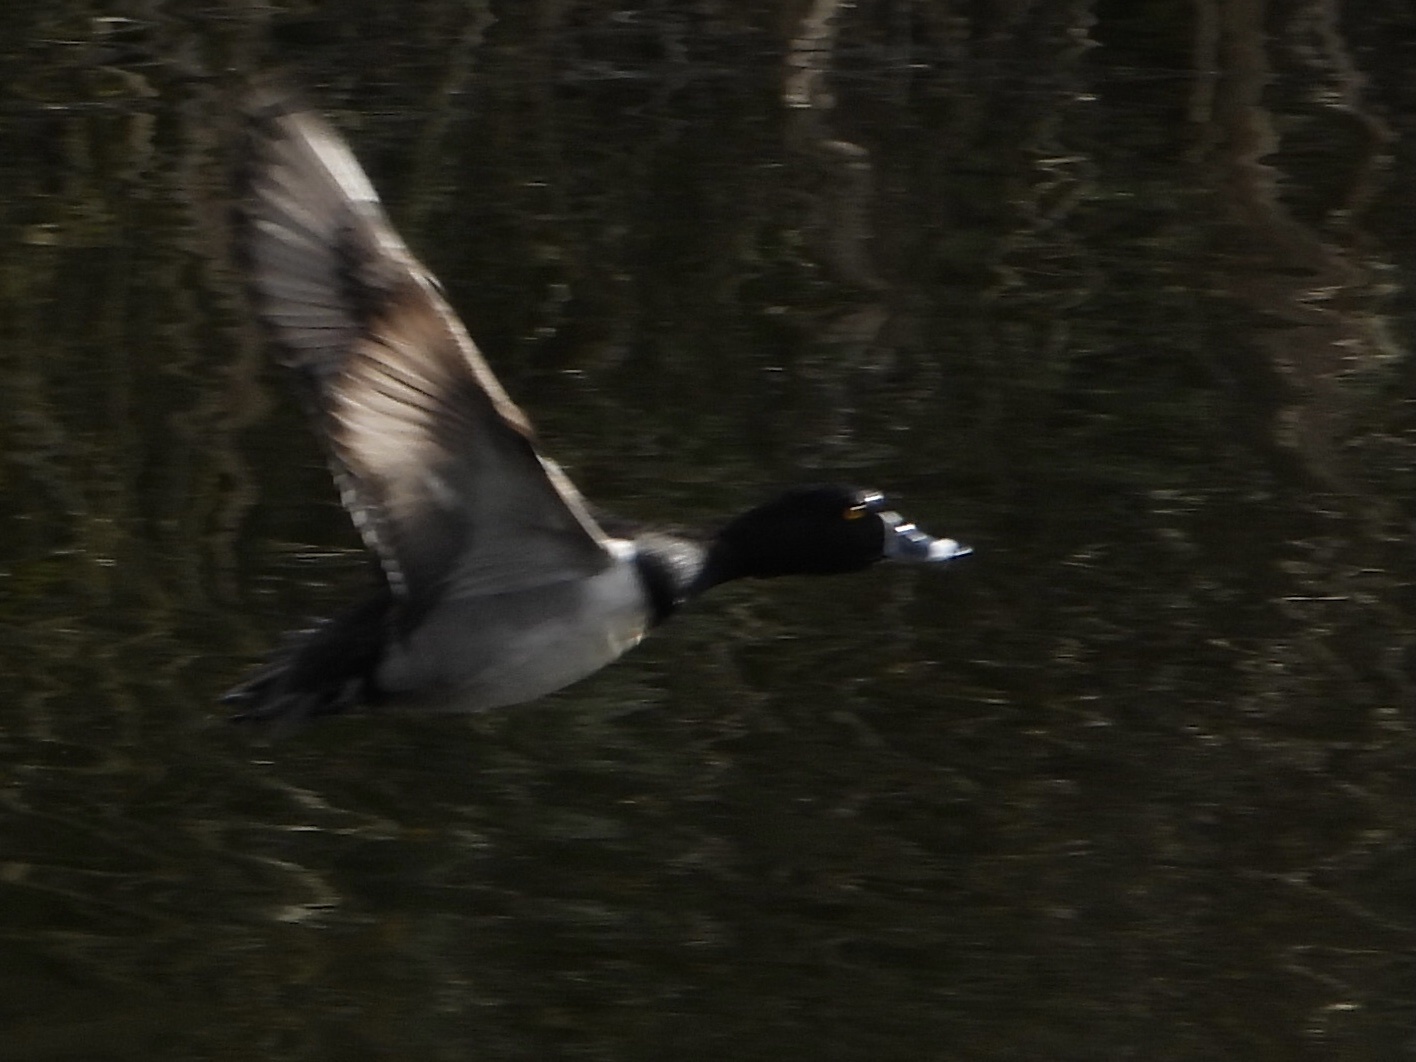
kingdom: Animalia
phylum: Chordata
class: Aves
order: Anseriformes
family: Anatidae
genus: Aythya
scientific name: Aythya collaris
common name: Ring-necked duck
